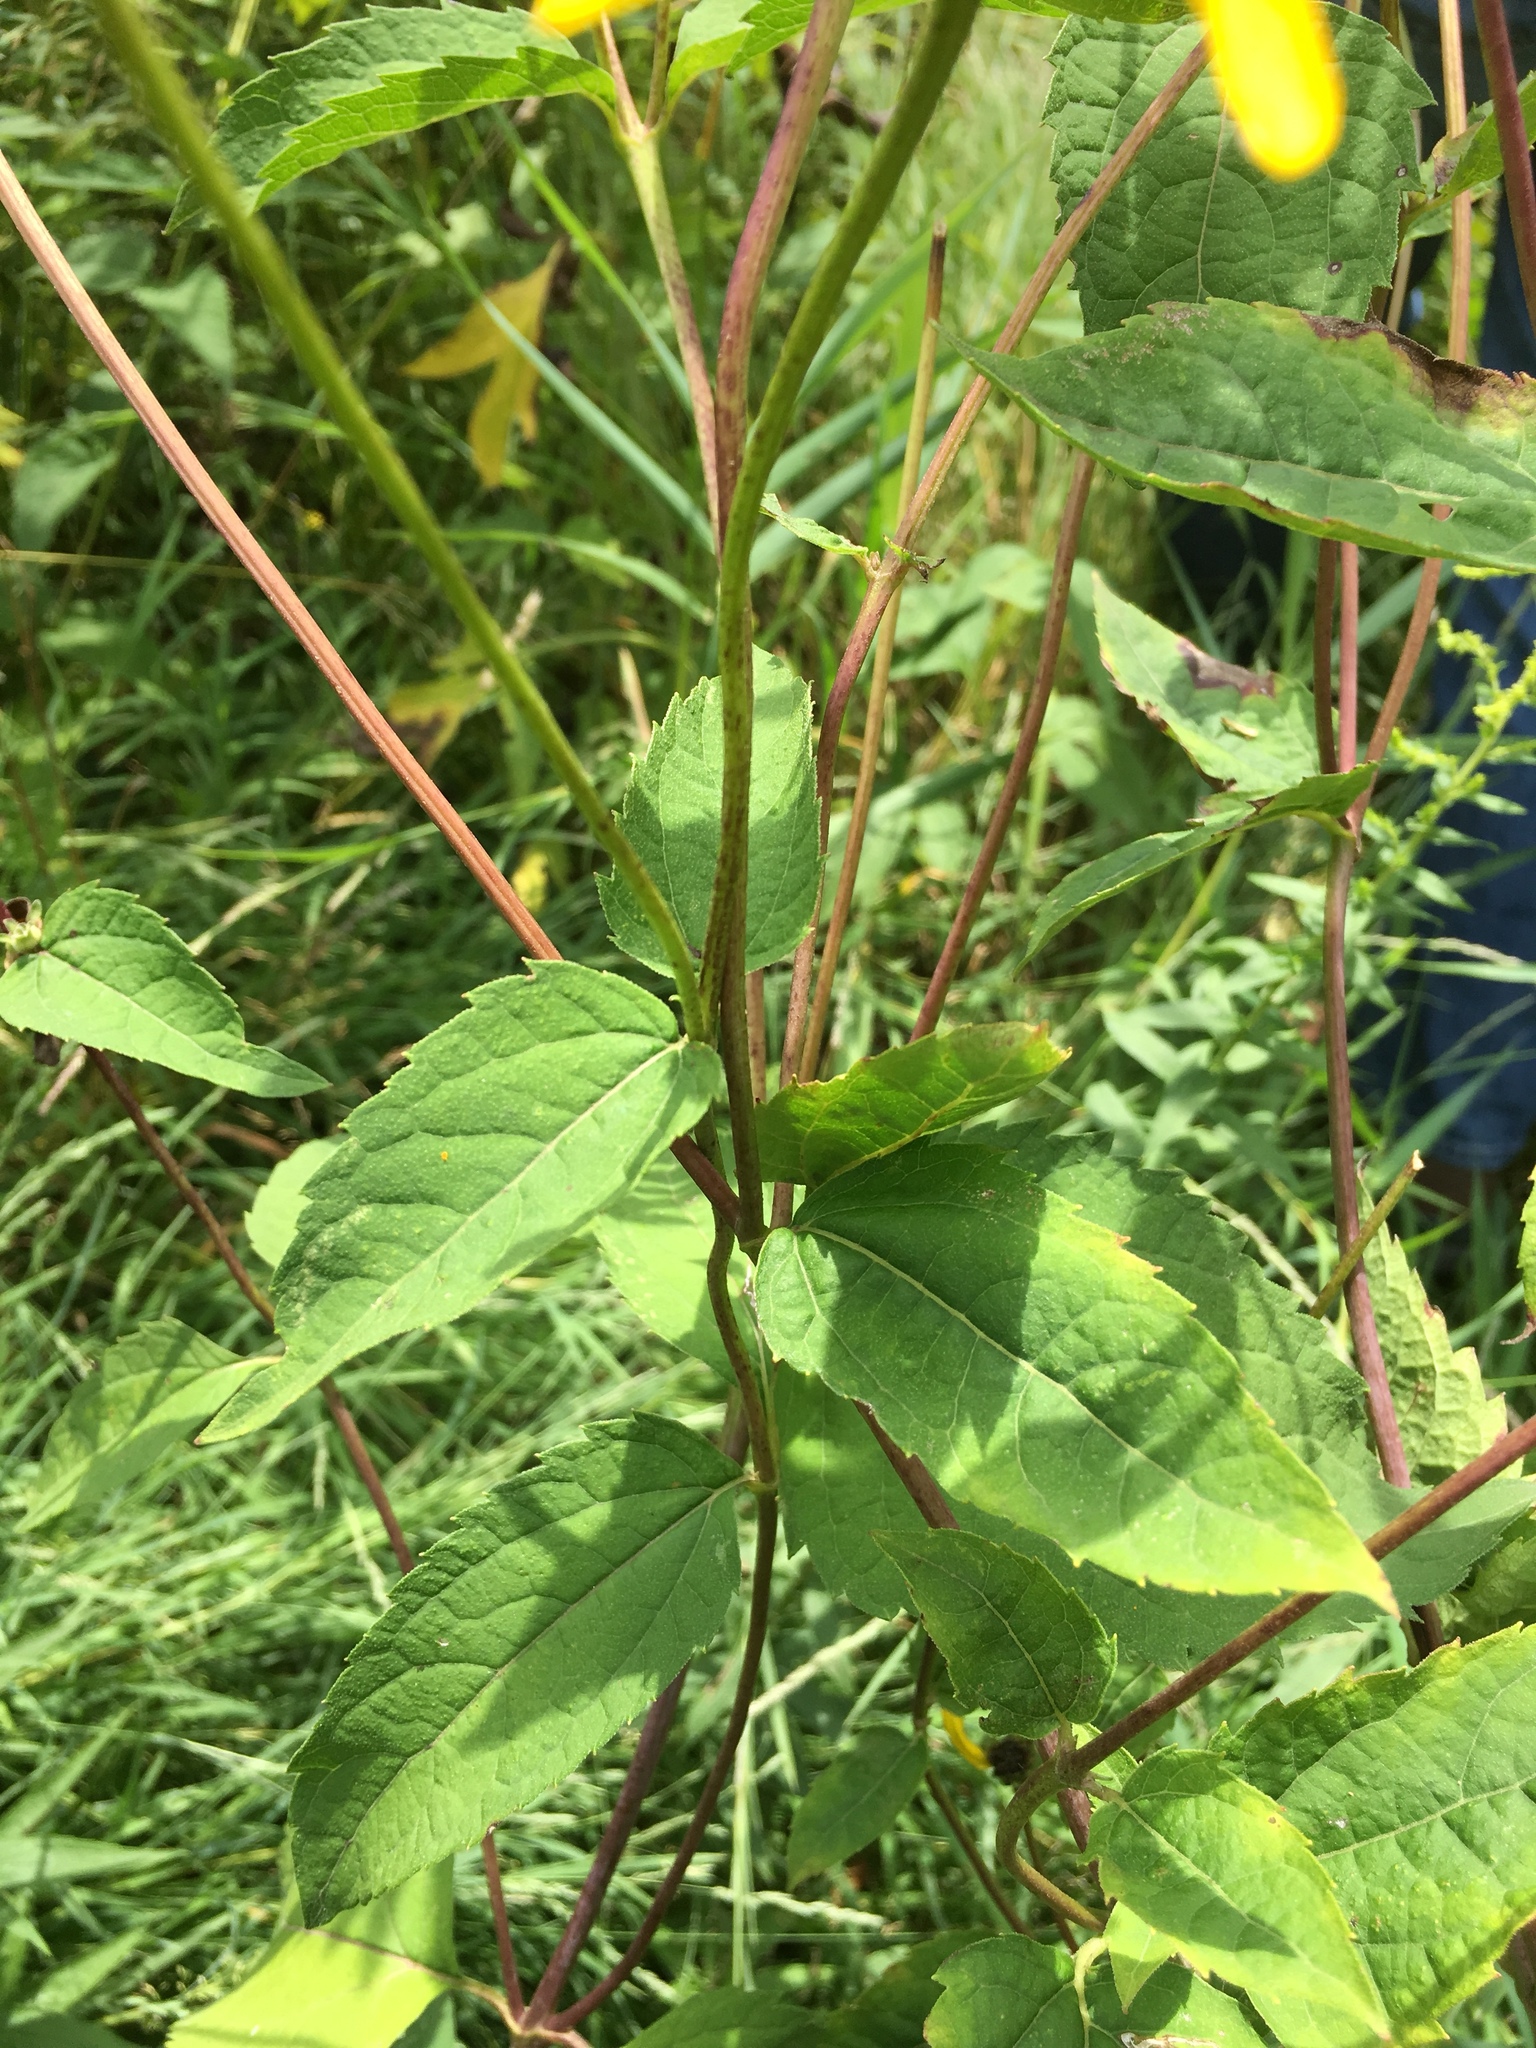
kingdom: Plantae
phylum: Tracheophyta
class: Magnoliopsida
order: Asterales
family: Asteraceae
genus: Heliopsis
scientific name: Heliopsis helianthoides
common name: False sunflower
